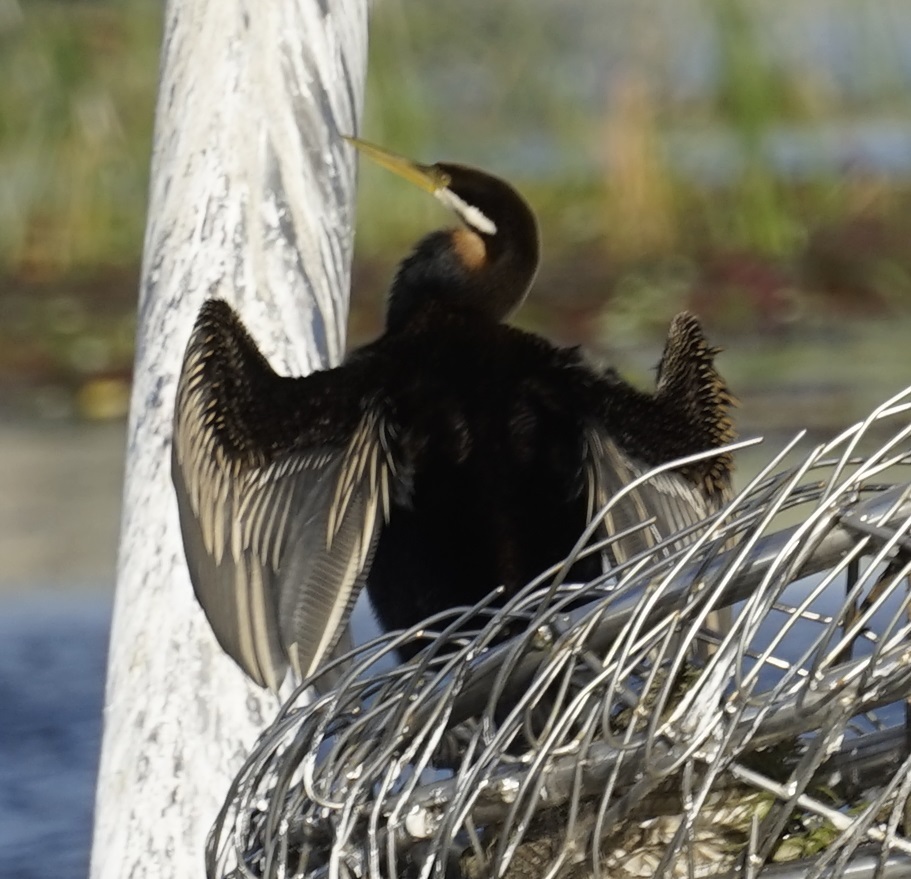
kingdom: Animalia
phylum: Chordata
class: Aves
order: Suliformes
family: Anhingidae
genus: Anhinga
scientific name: Anhinga novaehollandiae
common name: Australasian darter
